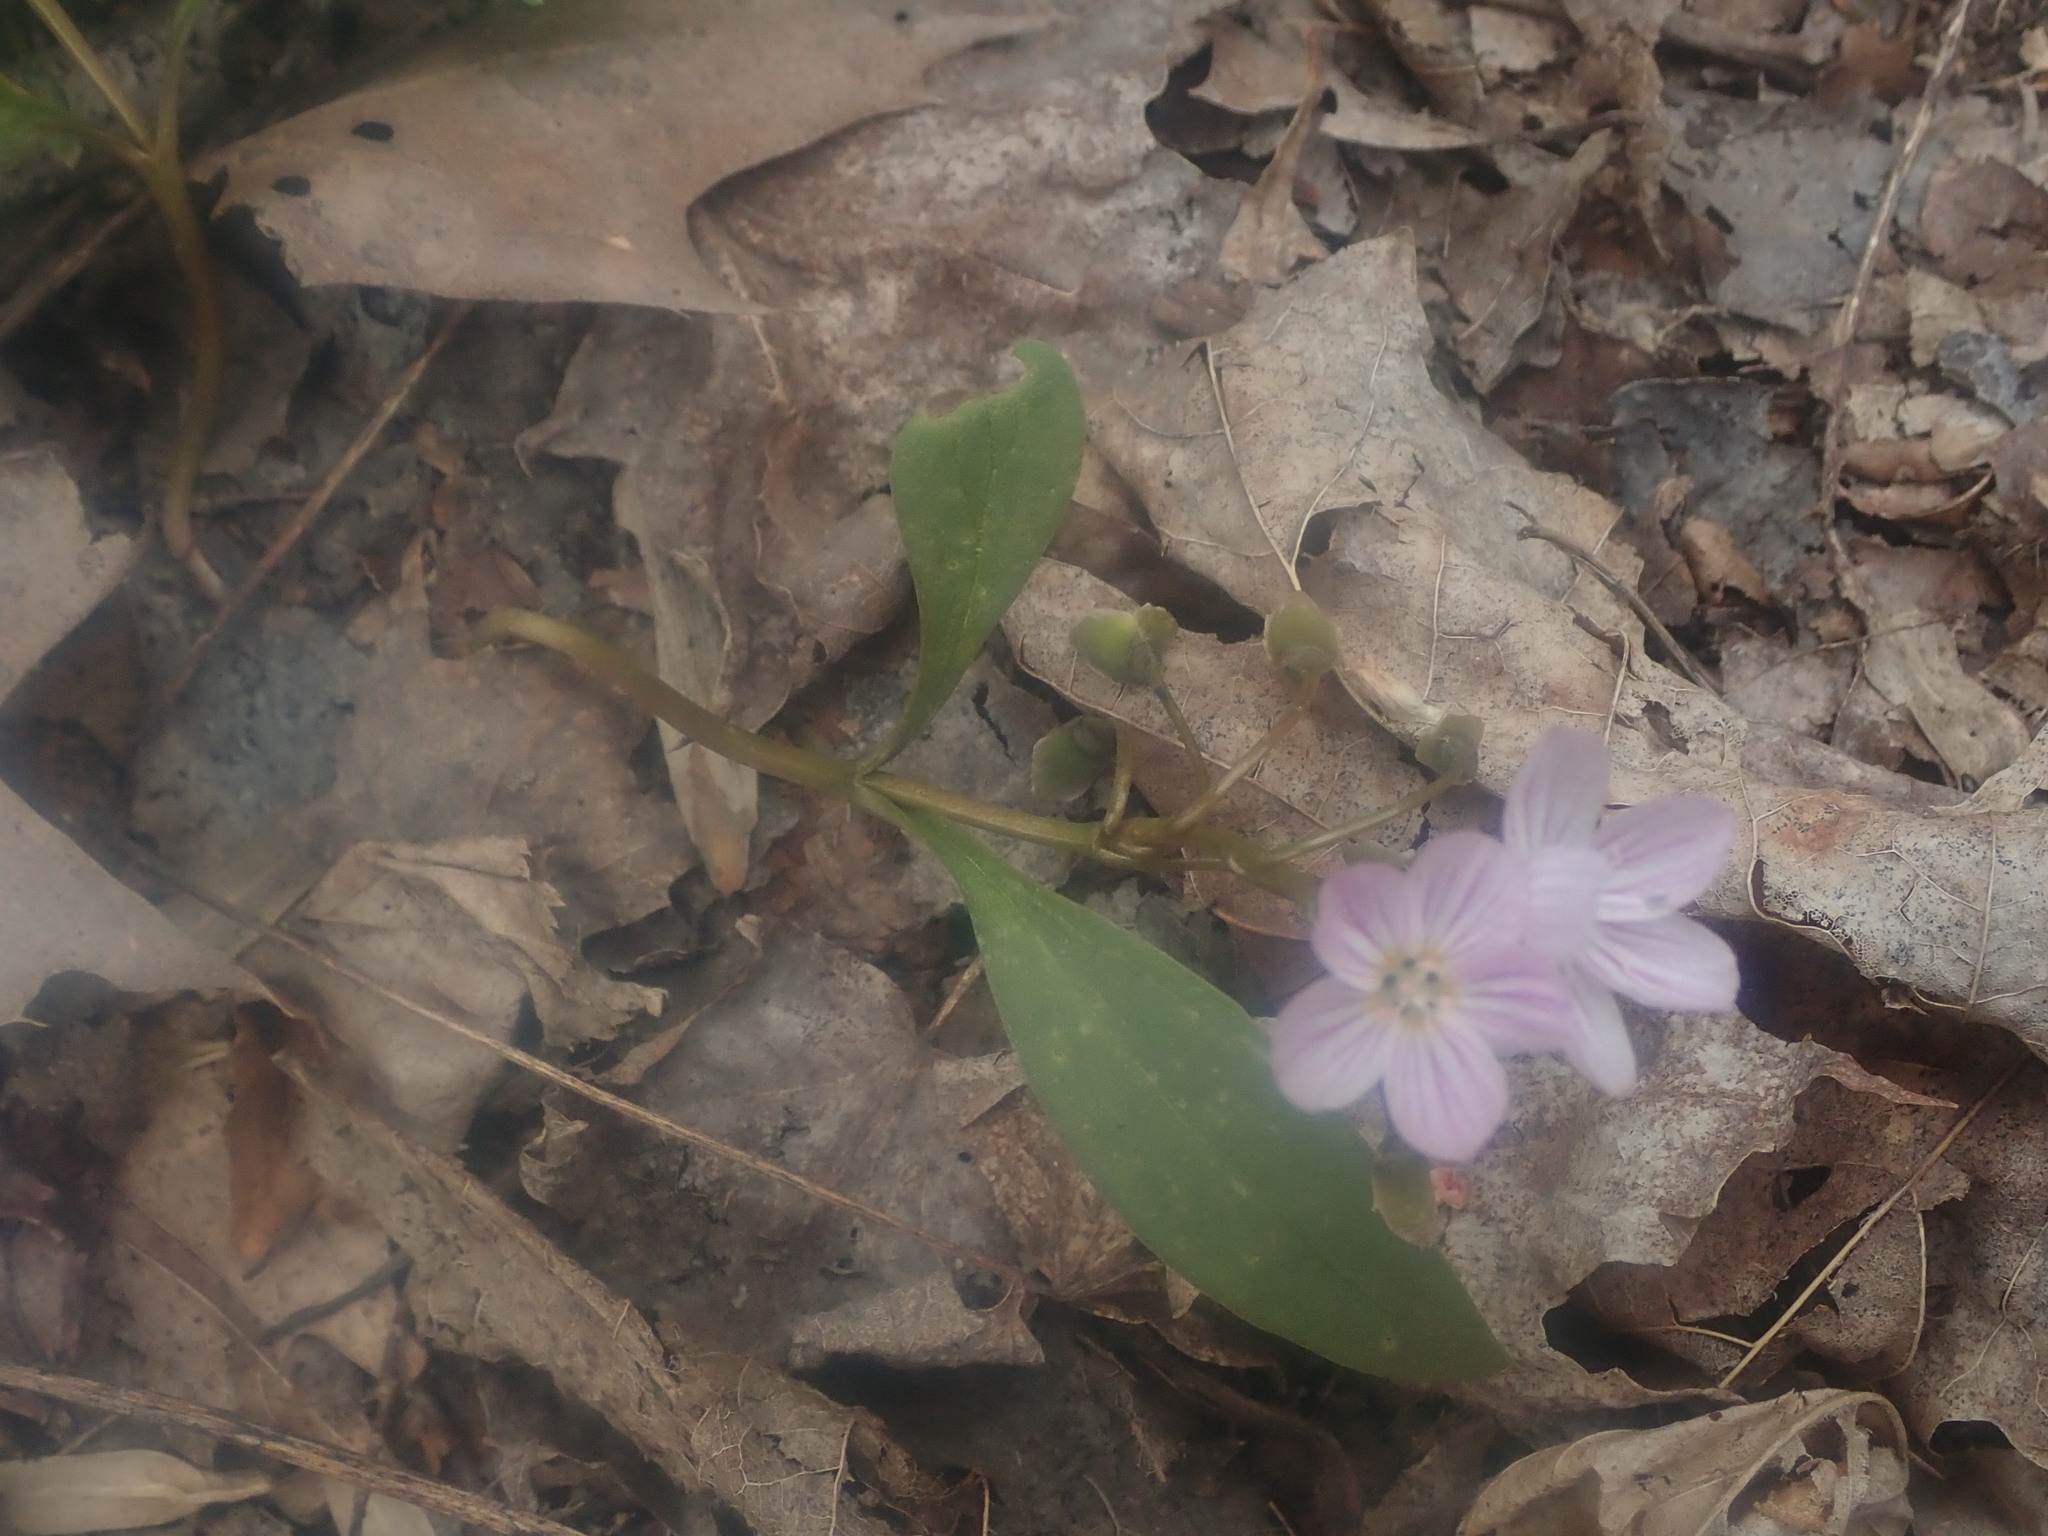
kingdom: Plantae
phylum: Tracheophyta
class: Magnoliopsida
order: Caryophyllales
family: Montiaceae
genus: Claytonia
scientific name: Claytonia caroliniana
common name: Carolina spring beauty
